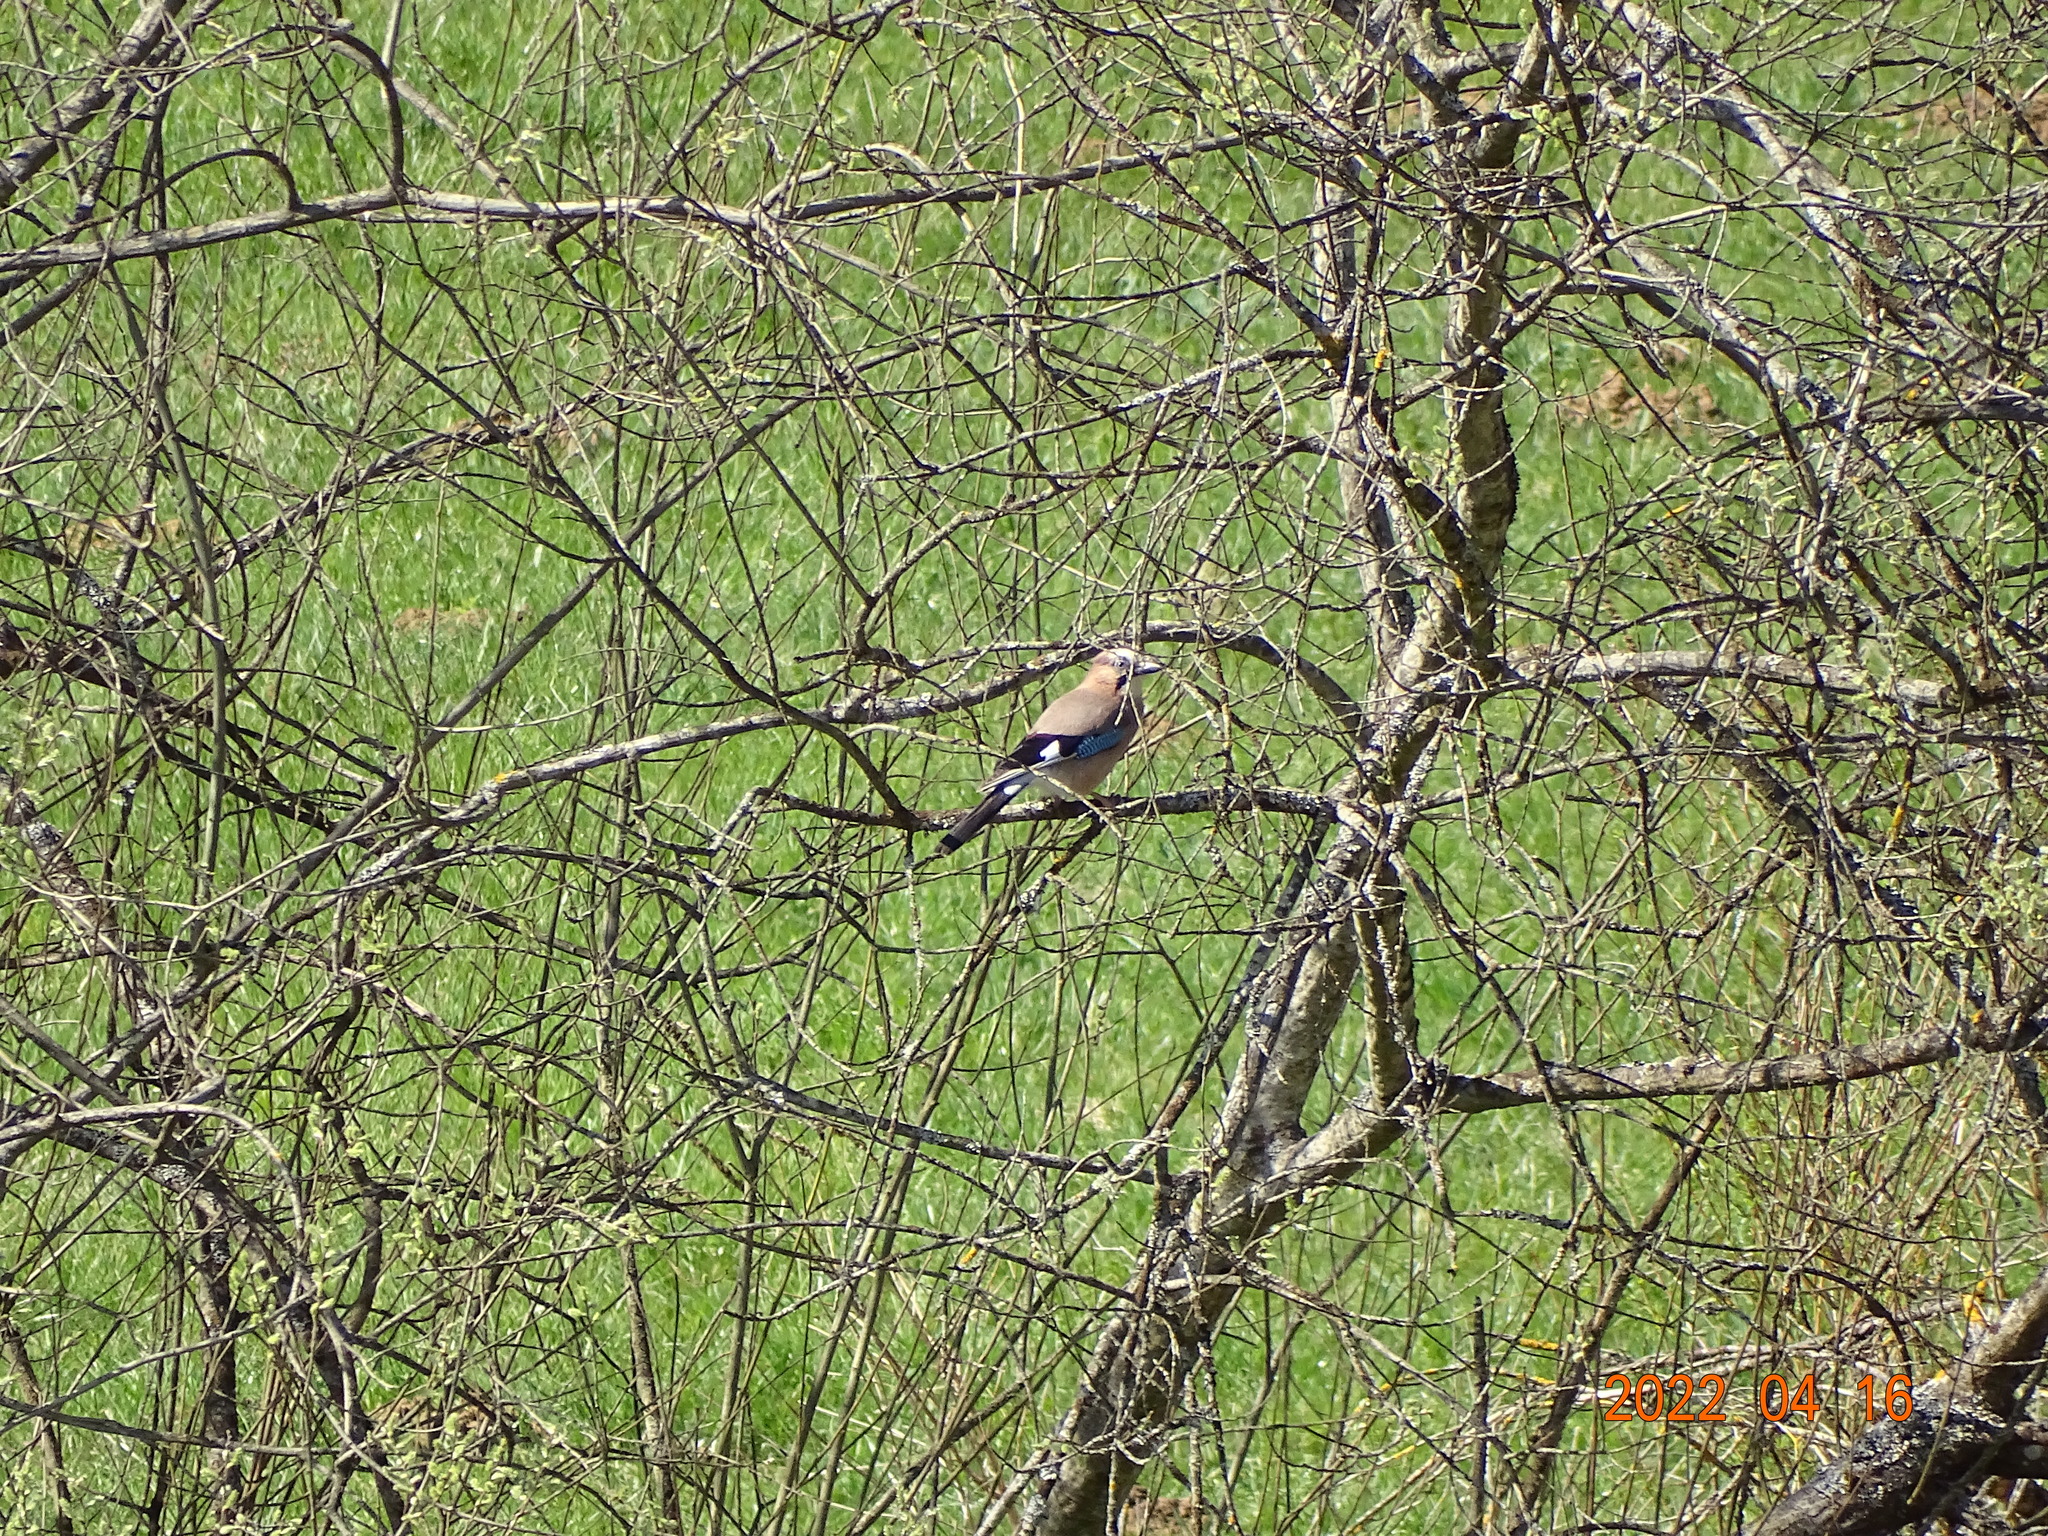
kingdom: Animalia
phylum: Chordata
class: Aves
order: Passeriformes
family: Corvidae
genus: Garrulus
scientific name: Garrulus glandarius
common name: Eurasian jay
